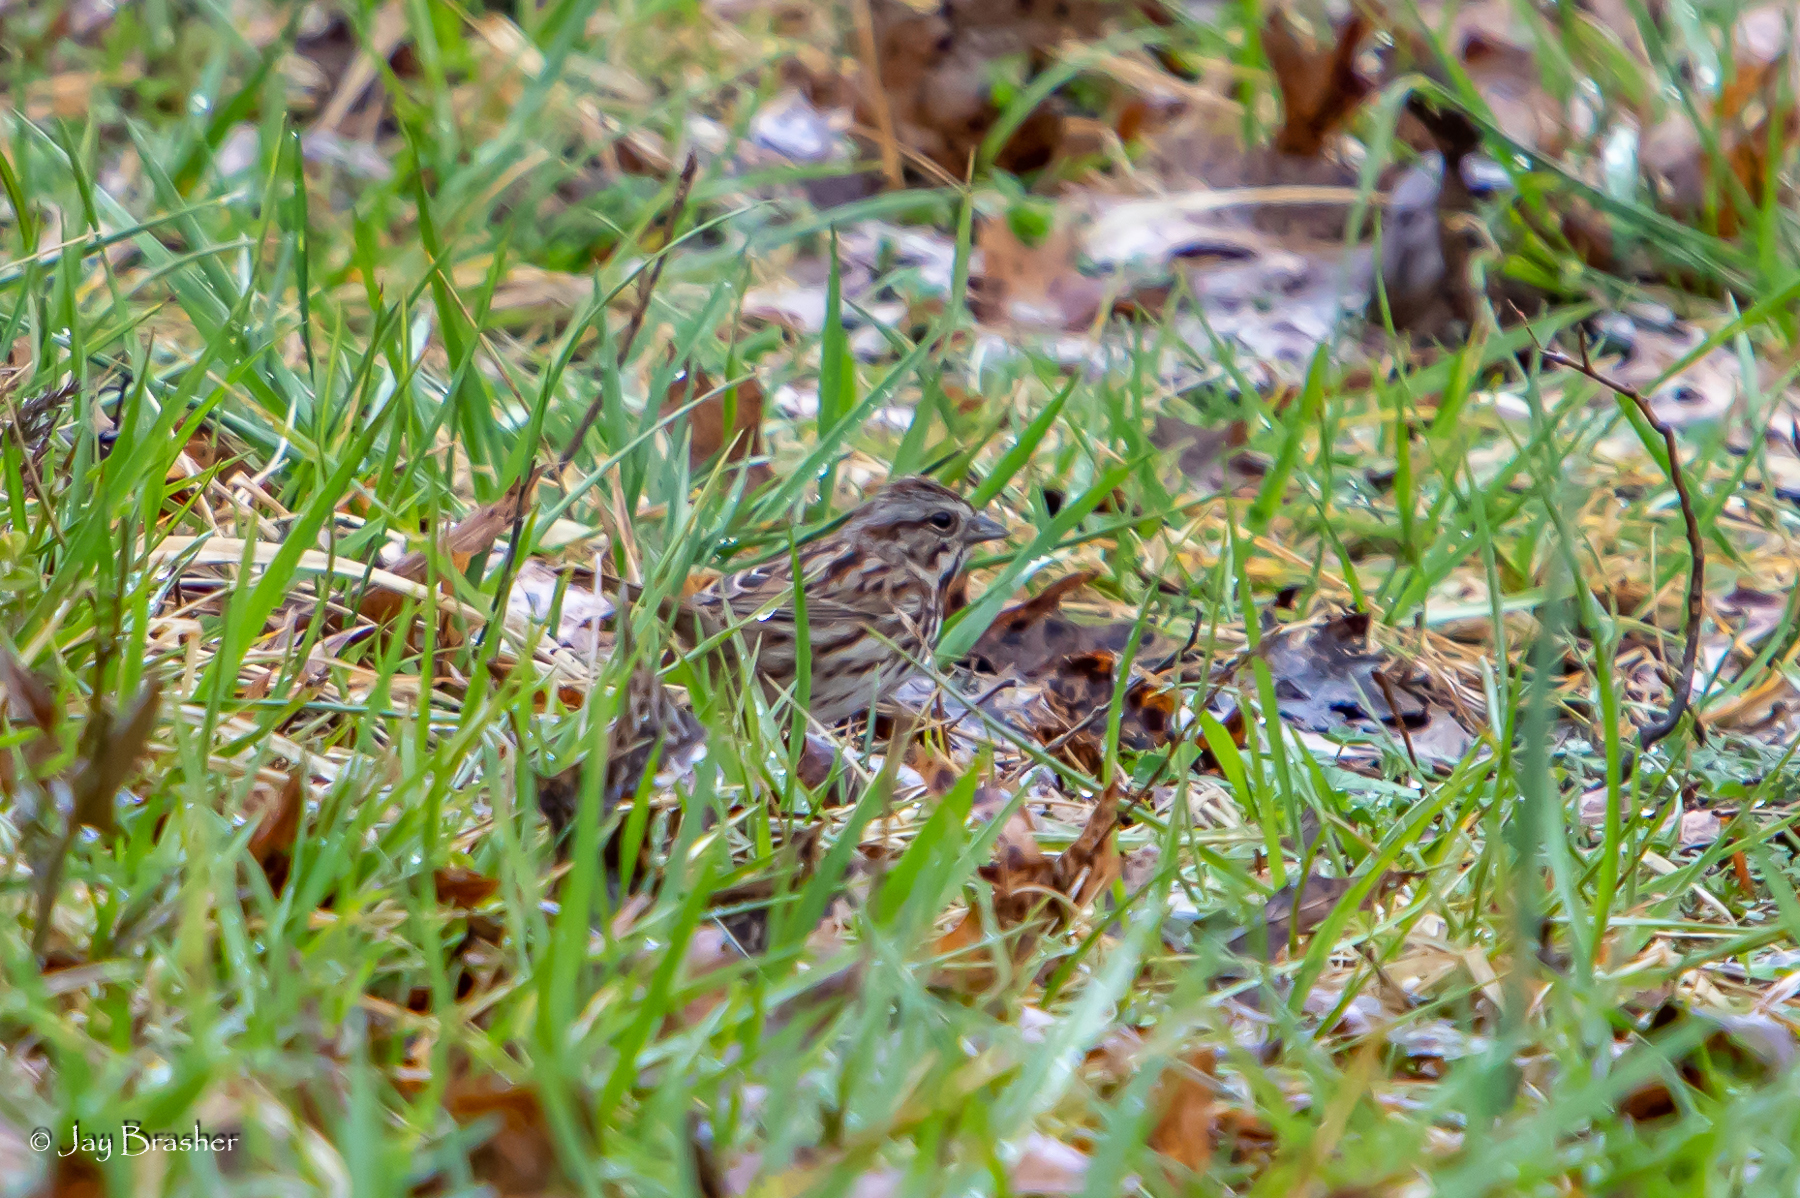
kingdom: Animalia
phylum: Chordata
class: Aves
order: Passeriformes
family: Passerellidae
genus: Melospiza
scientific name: Melospiza melodia
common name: Song sparrow
